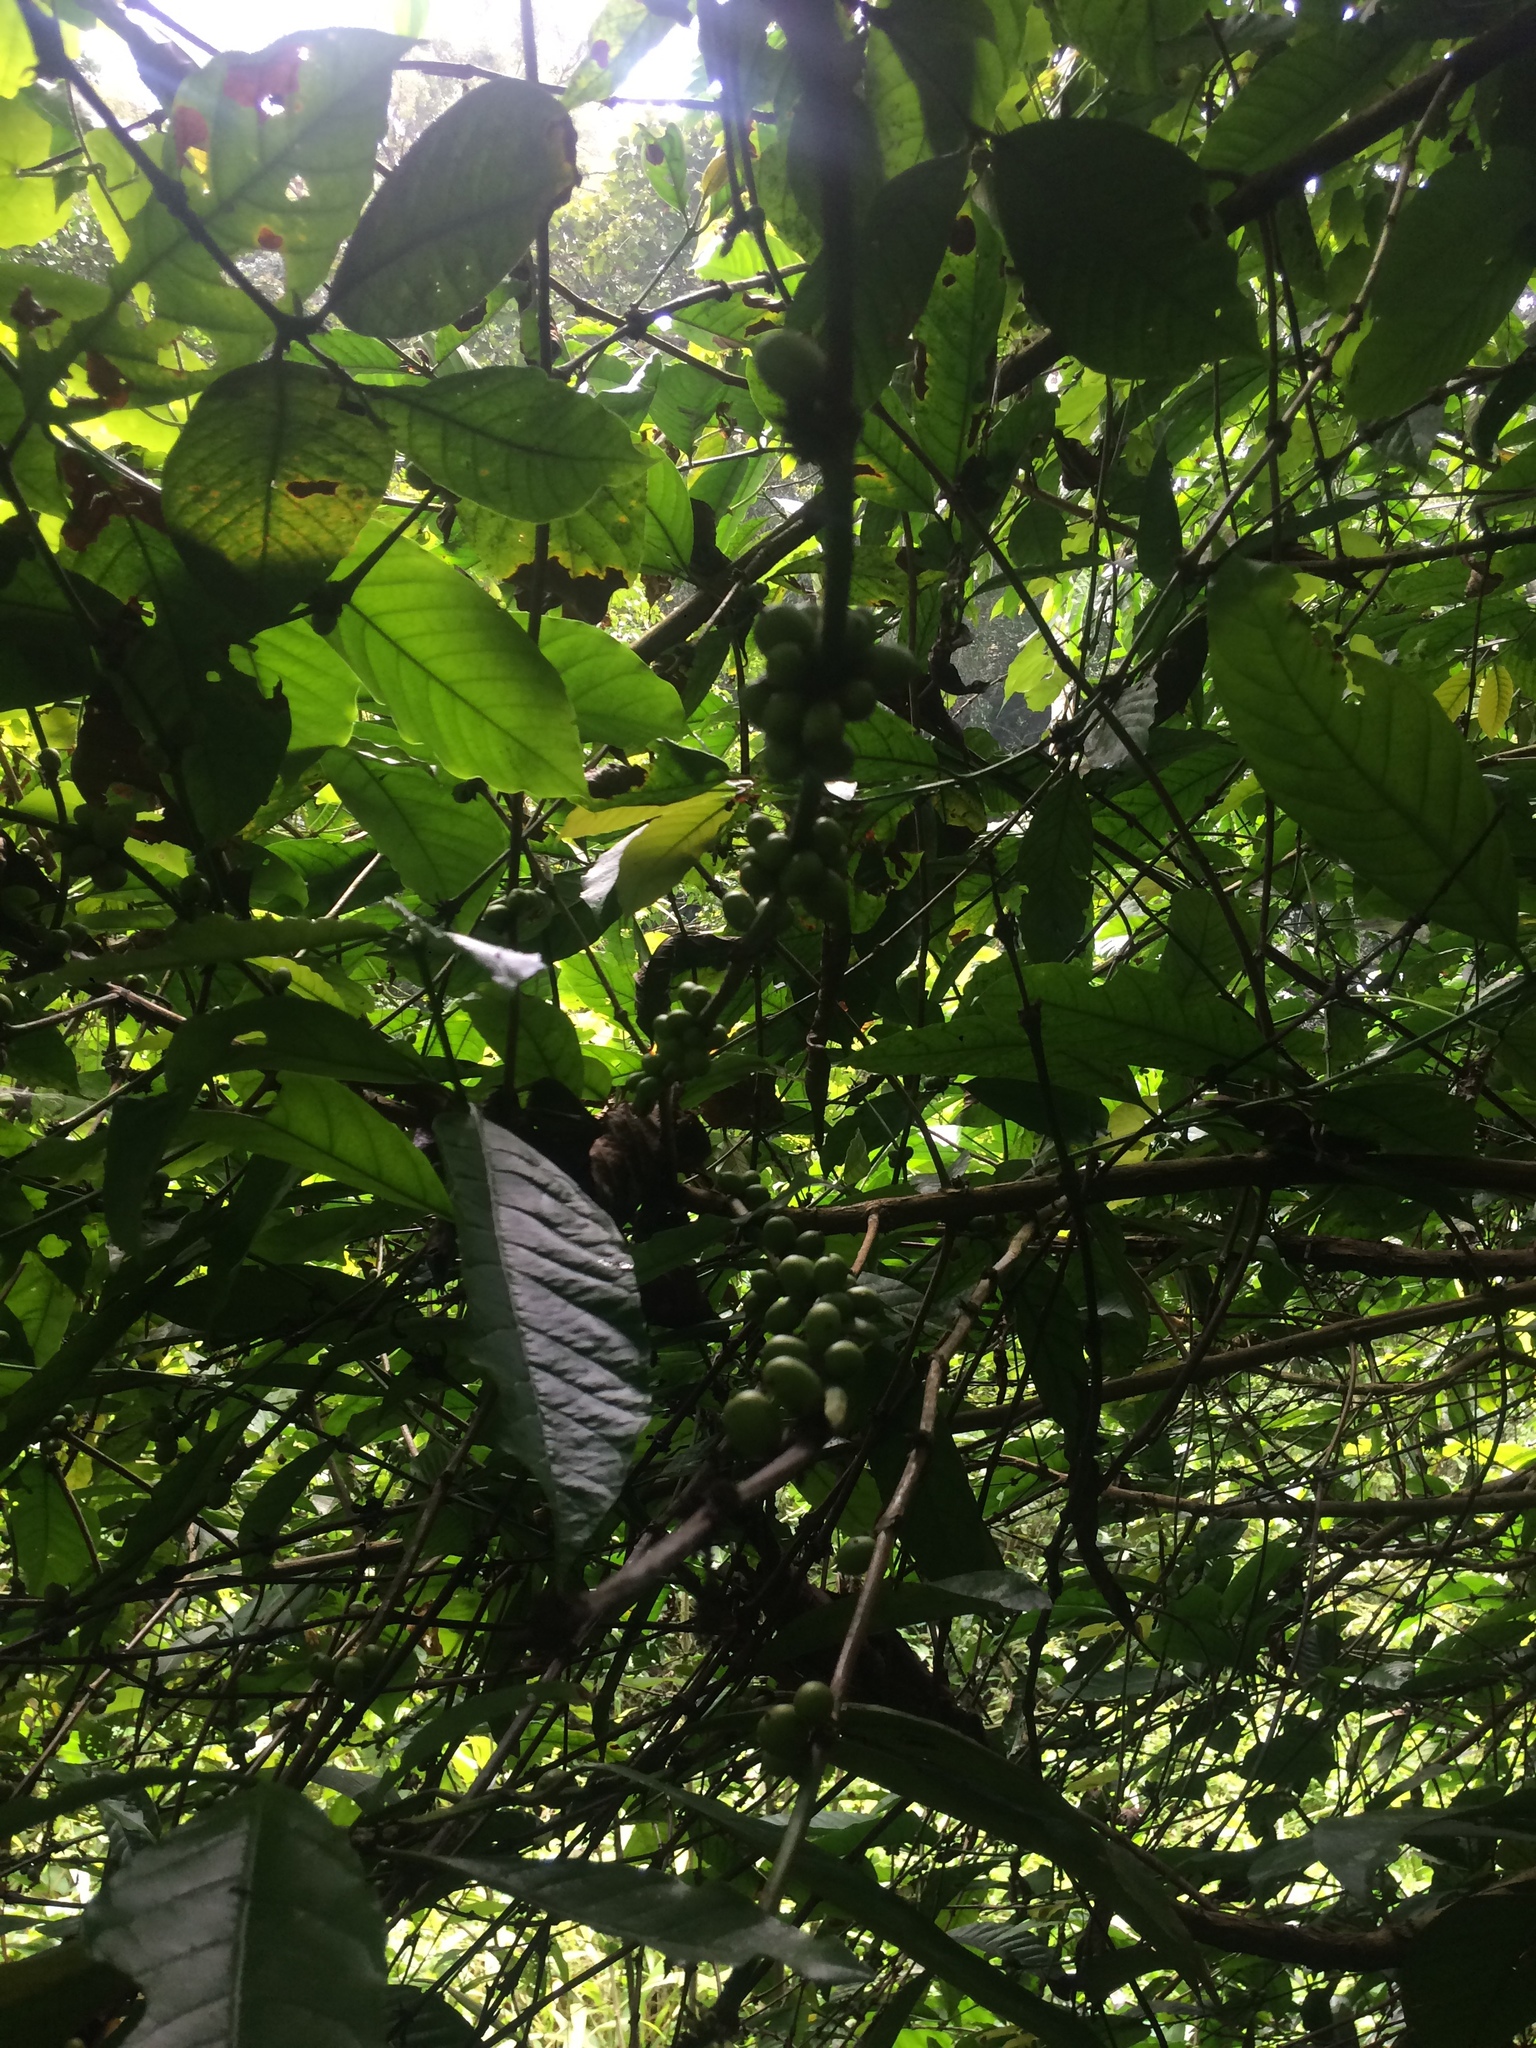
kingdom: Plantae
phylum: Tracheophyta
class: Magnoliopsida
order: Gentianales
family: Rubiaceae
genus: Coffea
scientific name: Coffea arabica
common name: Coffee
